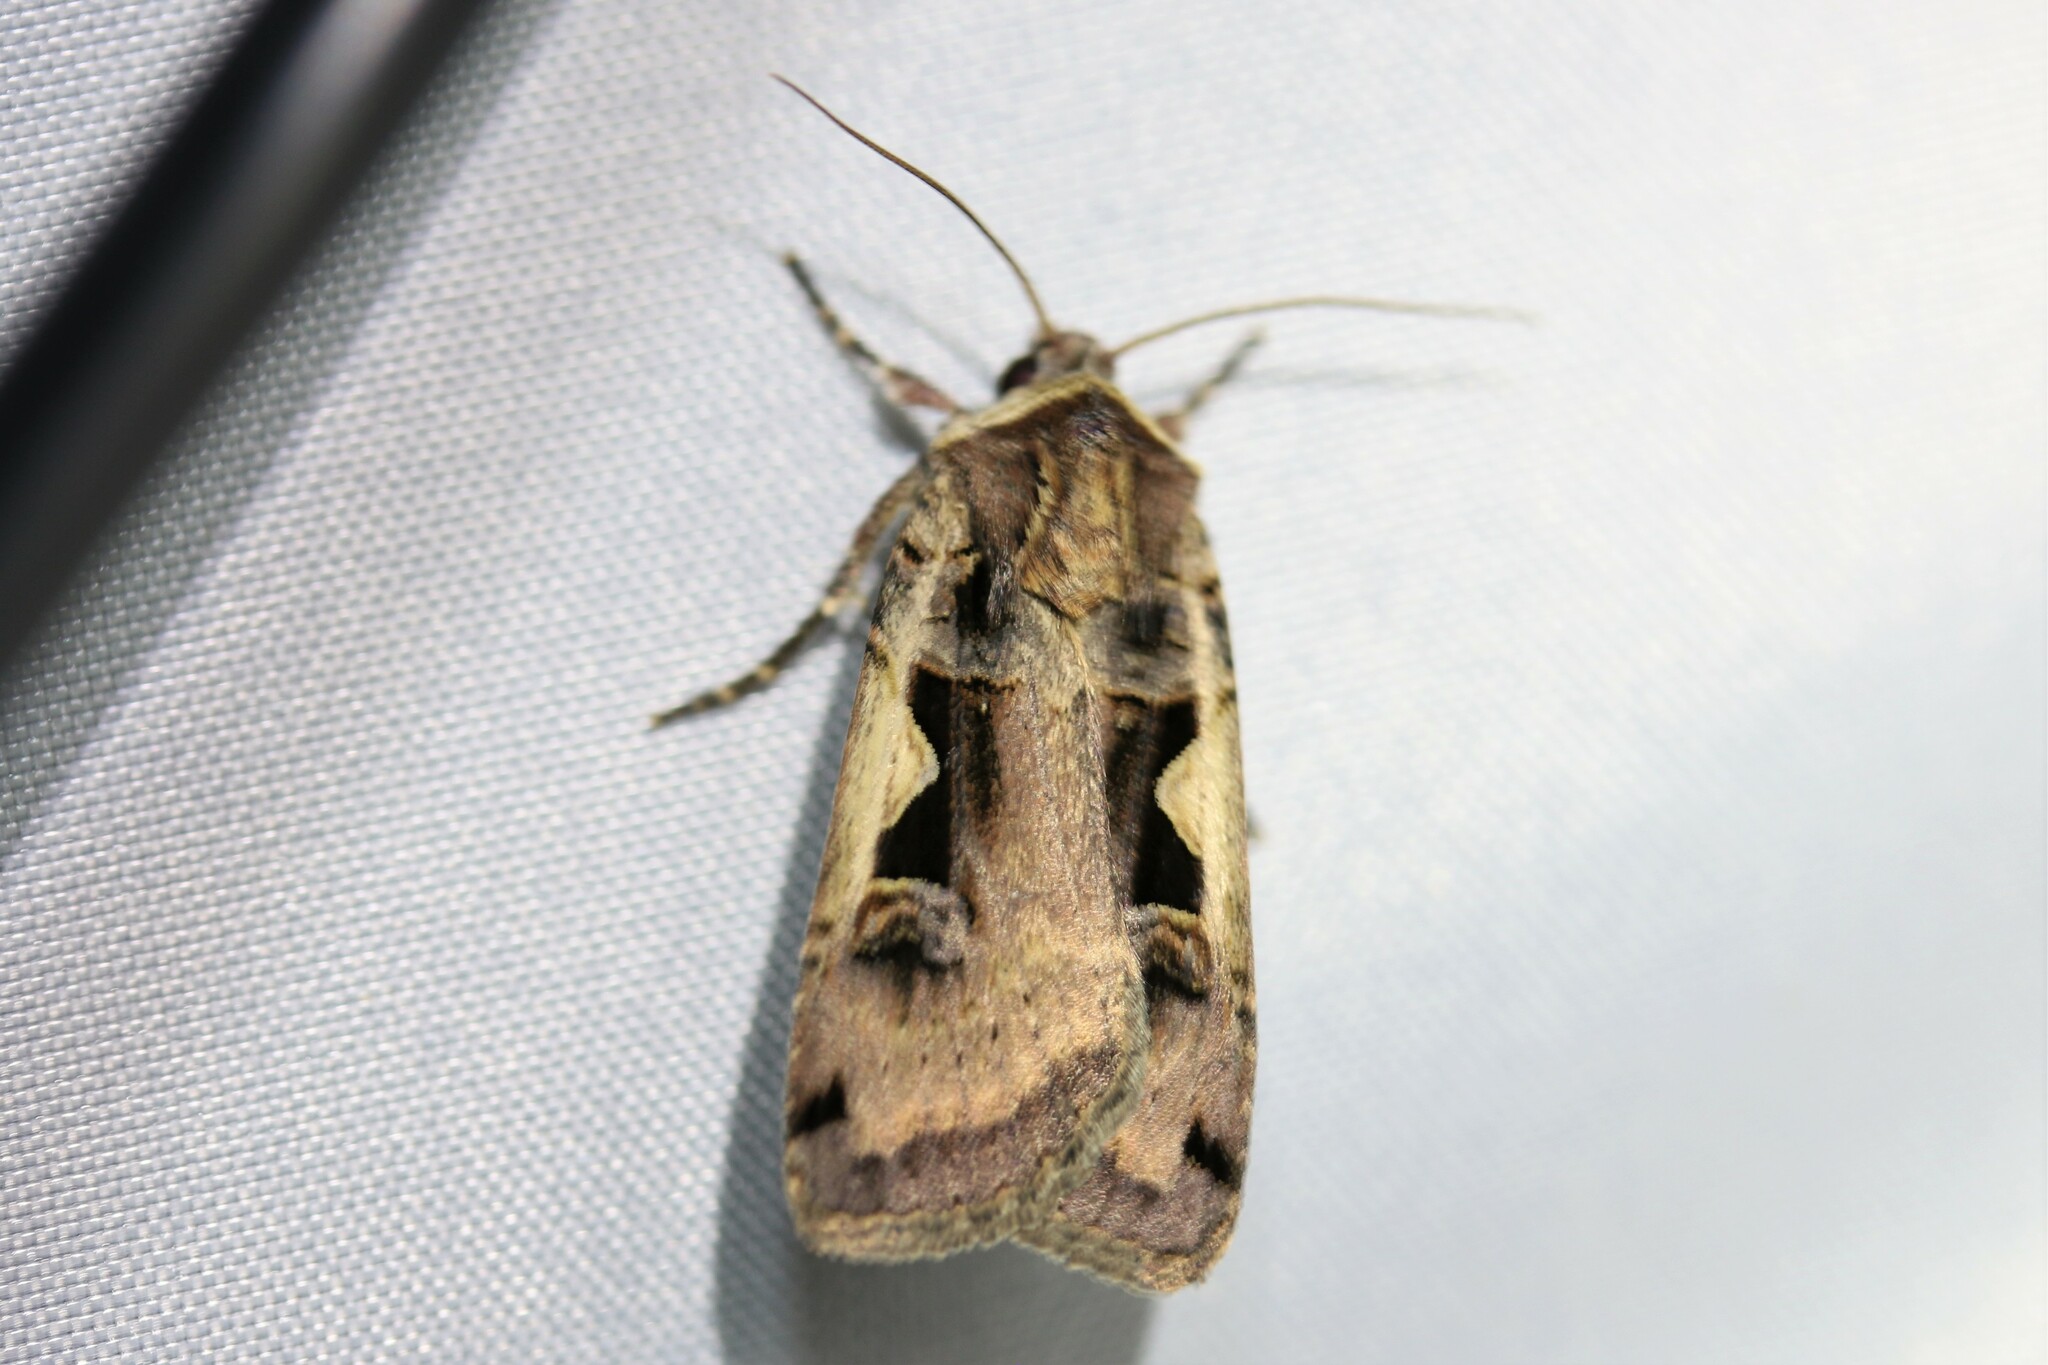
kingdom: Animalia
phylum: Arthropoda
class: Insecta
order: Lepidoptera
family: Noctuidae
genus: Xestia
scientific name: Xestia c-nigrum
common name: Setaceous hebrew character
